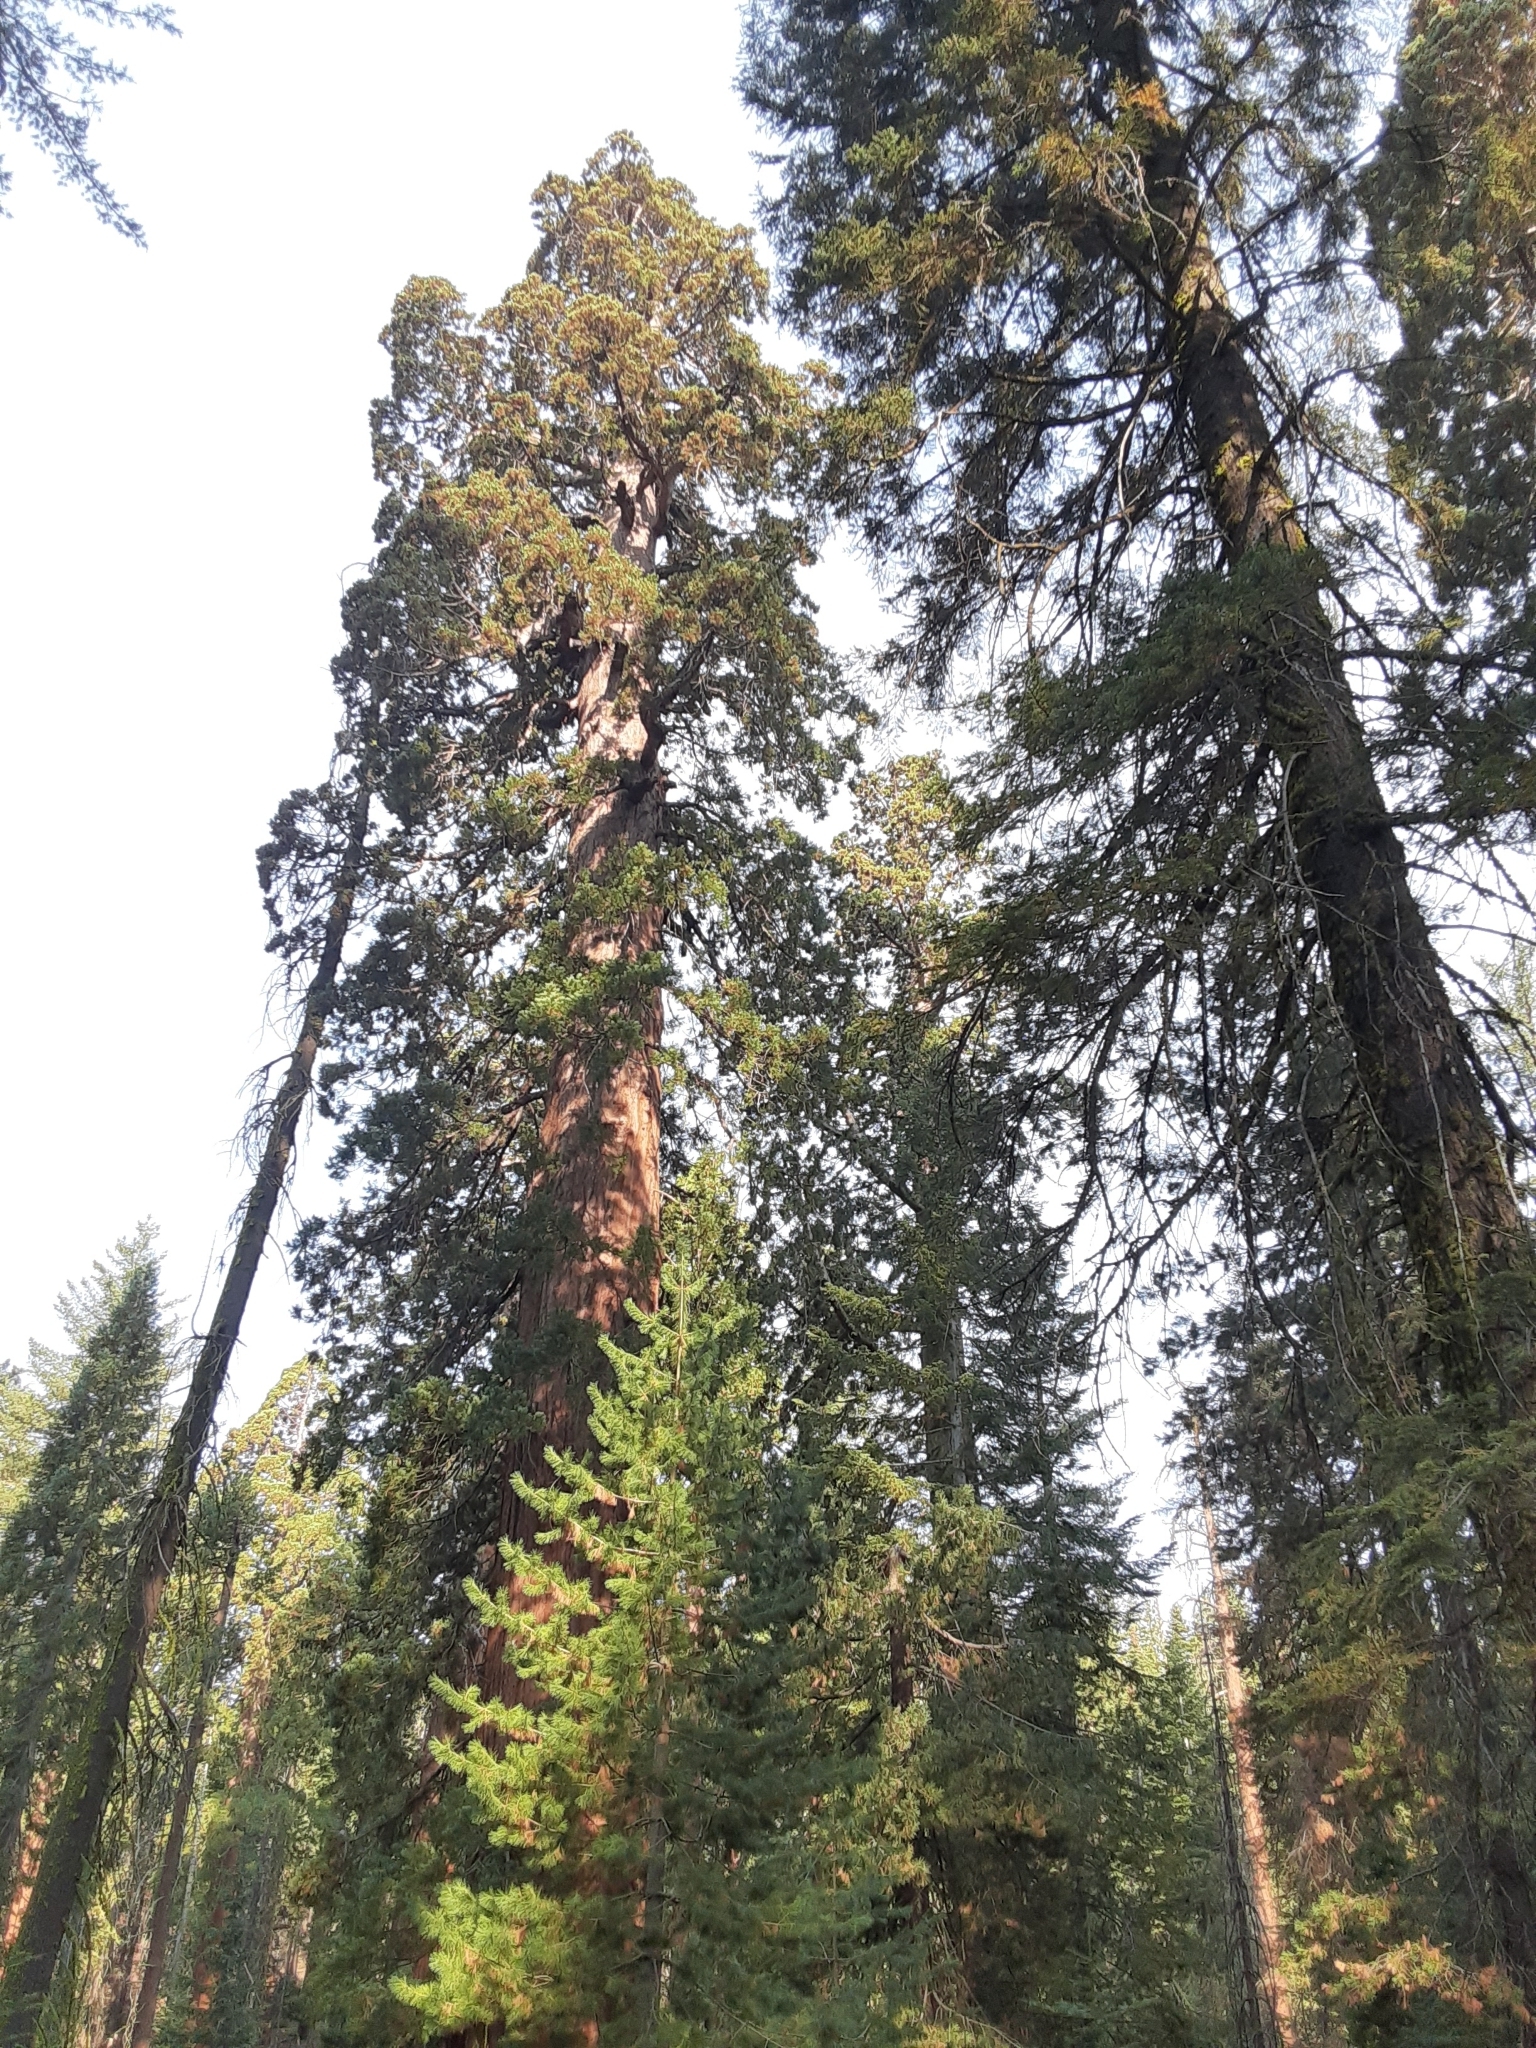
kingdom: Plantae
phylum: Tracheophyta
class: Pinopsida
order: Pinales
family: Cupressaceae
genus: Sequoiadendron
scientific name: Sequoiadendron giganteum
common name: Wellingtonia
